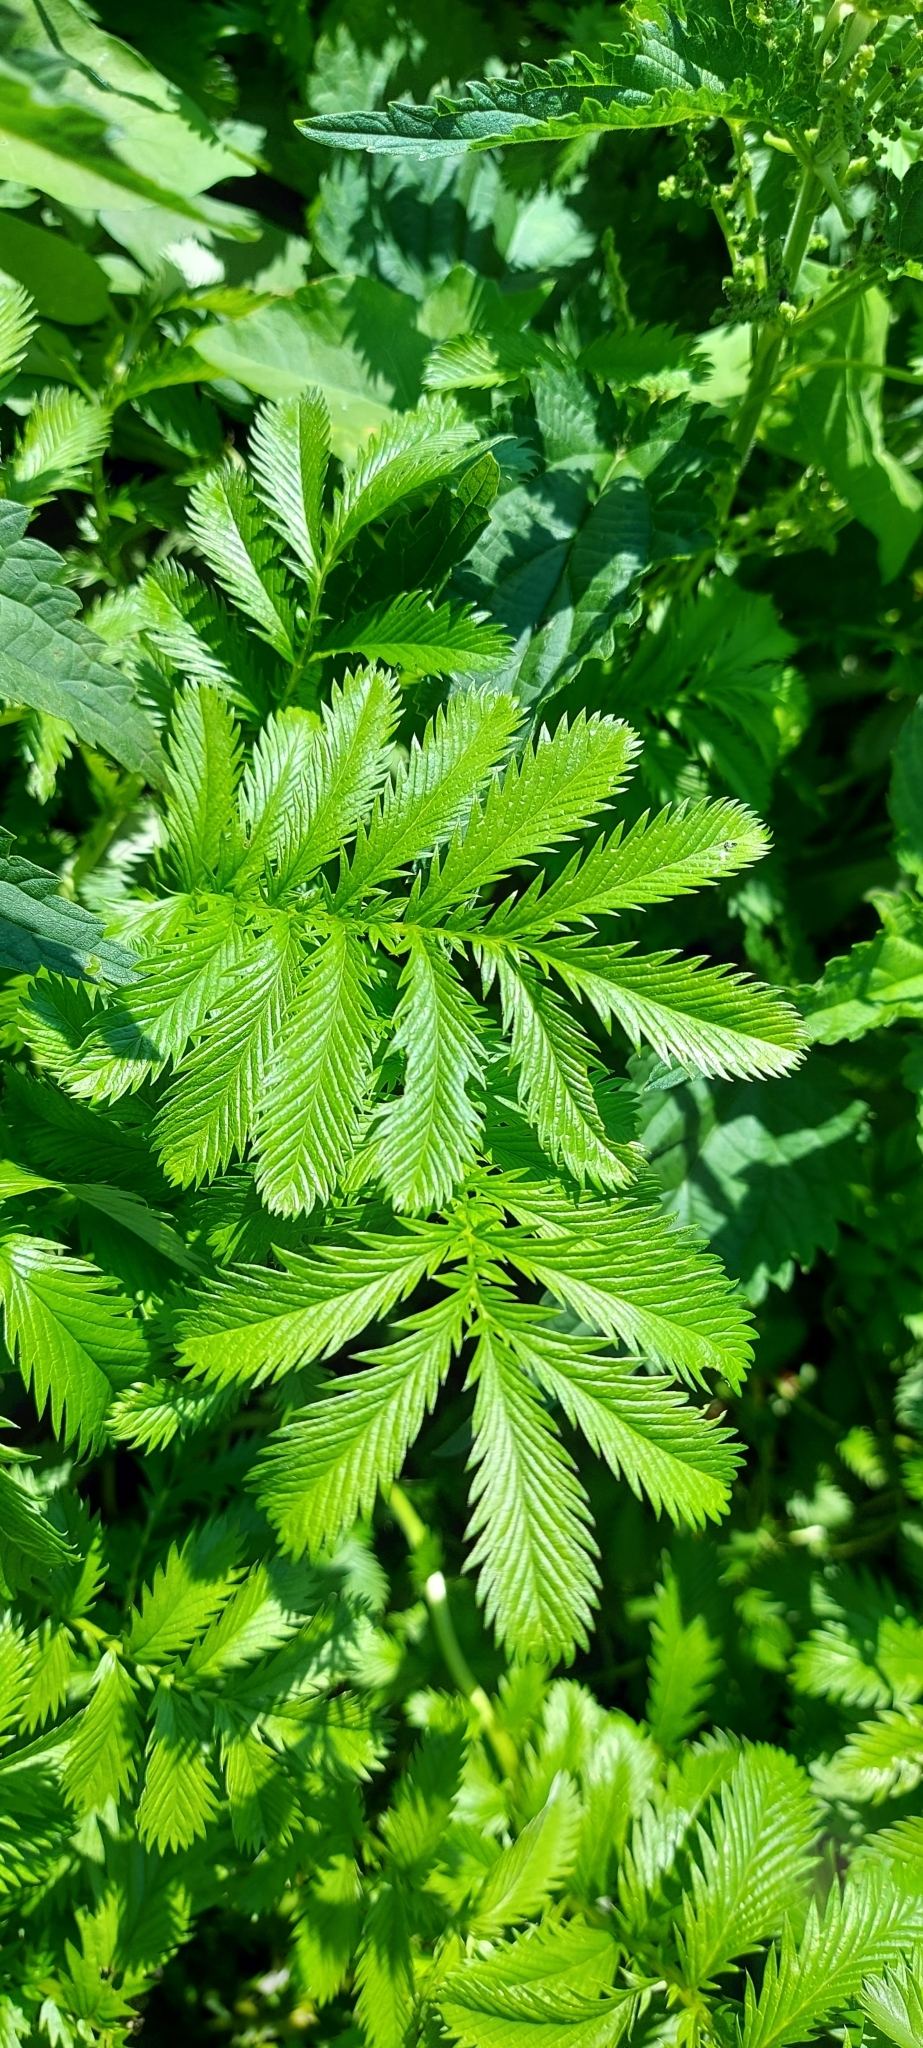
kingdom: Plantae
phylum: Tracheophyta
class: Magnoliopsida
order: Rosales
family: Rosaceae
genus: Argentina
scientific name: Argentina anserina
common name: Common silverweed
